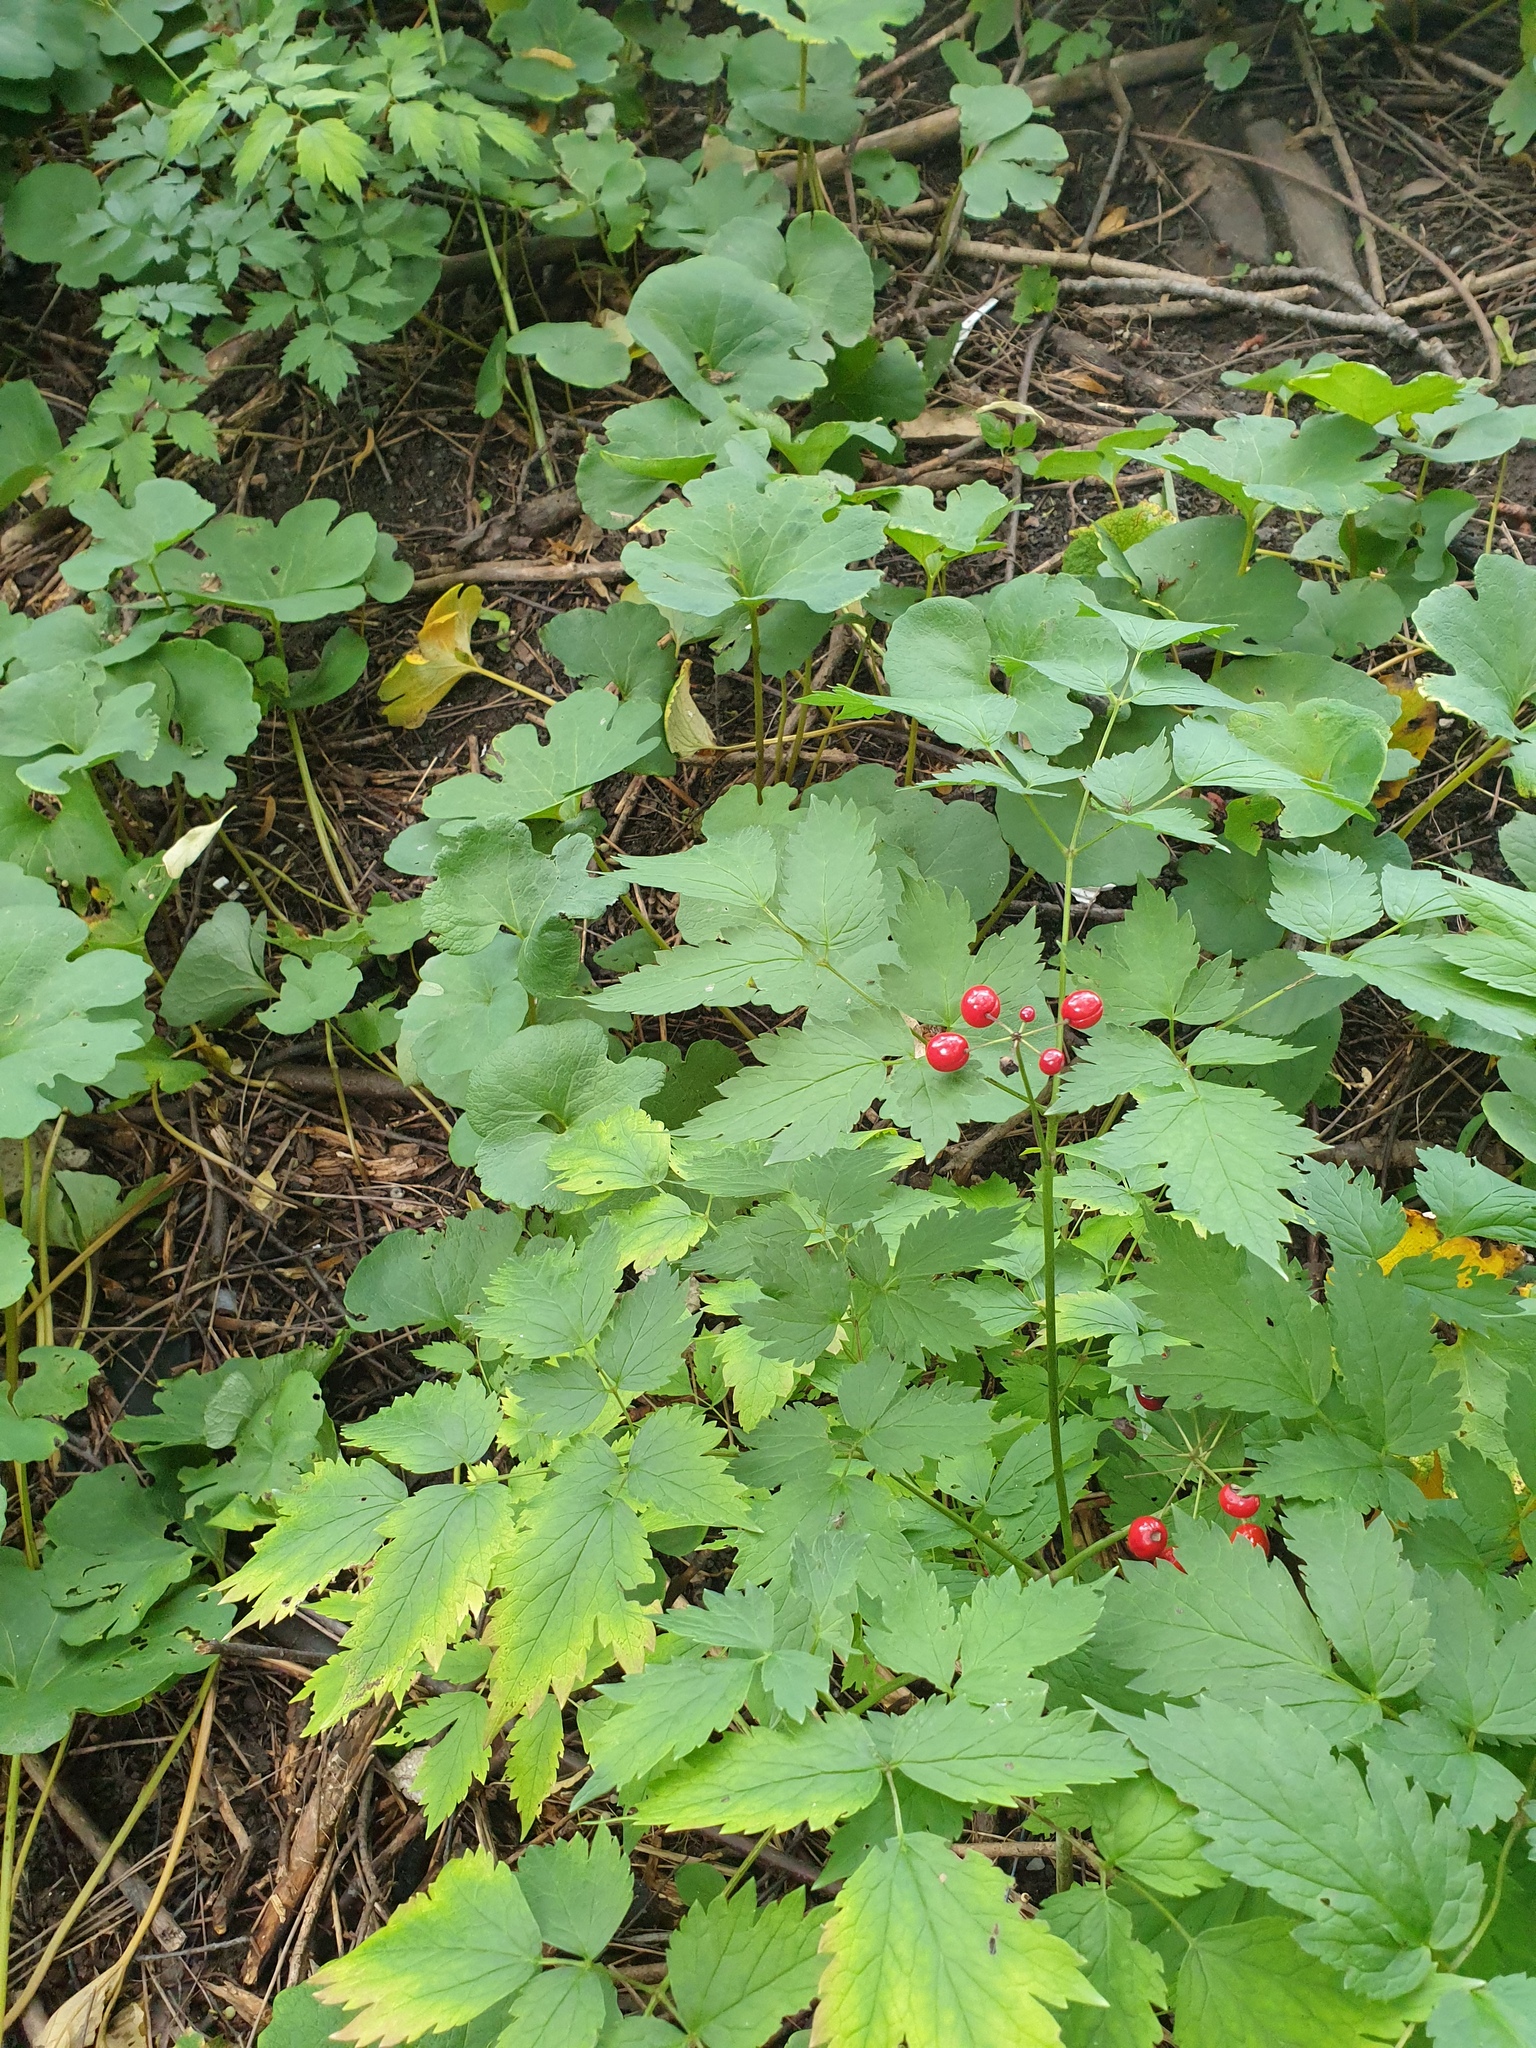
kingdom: Plantae
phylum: Tracheophyta
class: Magnoliopsida
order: Ranunculales
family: Ranunculaceae
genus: Actaea
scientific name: Actaea rubra
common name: Red baneberry
